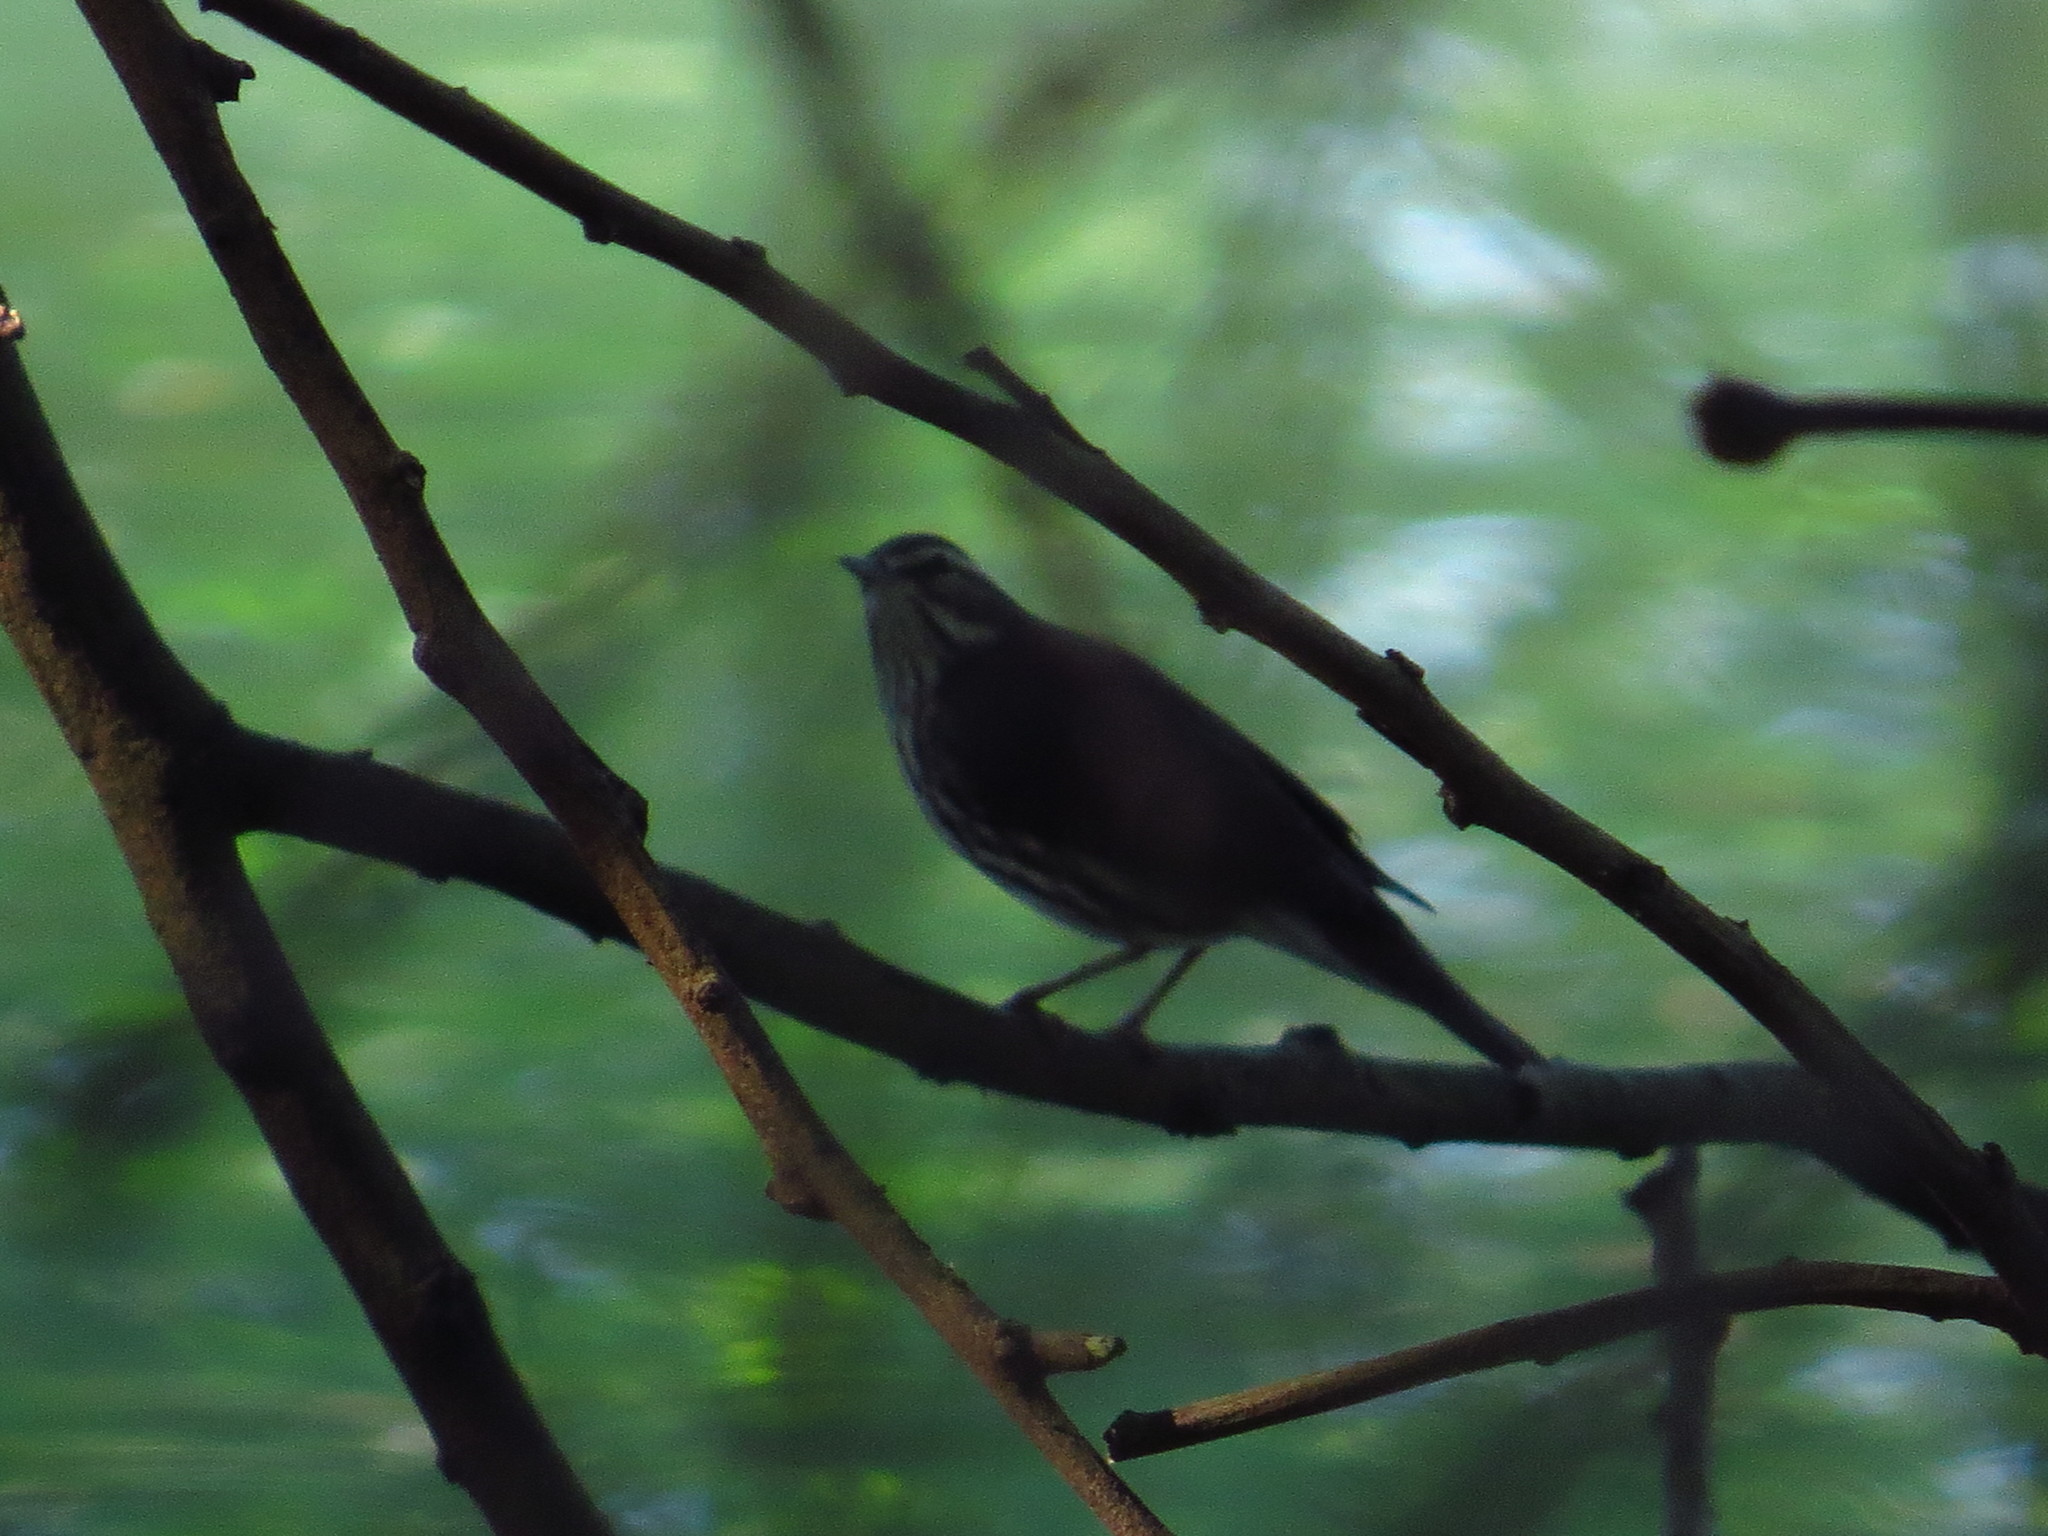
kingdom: Animalia
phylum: Chordata
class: Aves
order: Passeriformes
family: Parulidae
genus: Parkesia
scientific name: Parkesia motacilla
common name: Louisiana waterthrush
